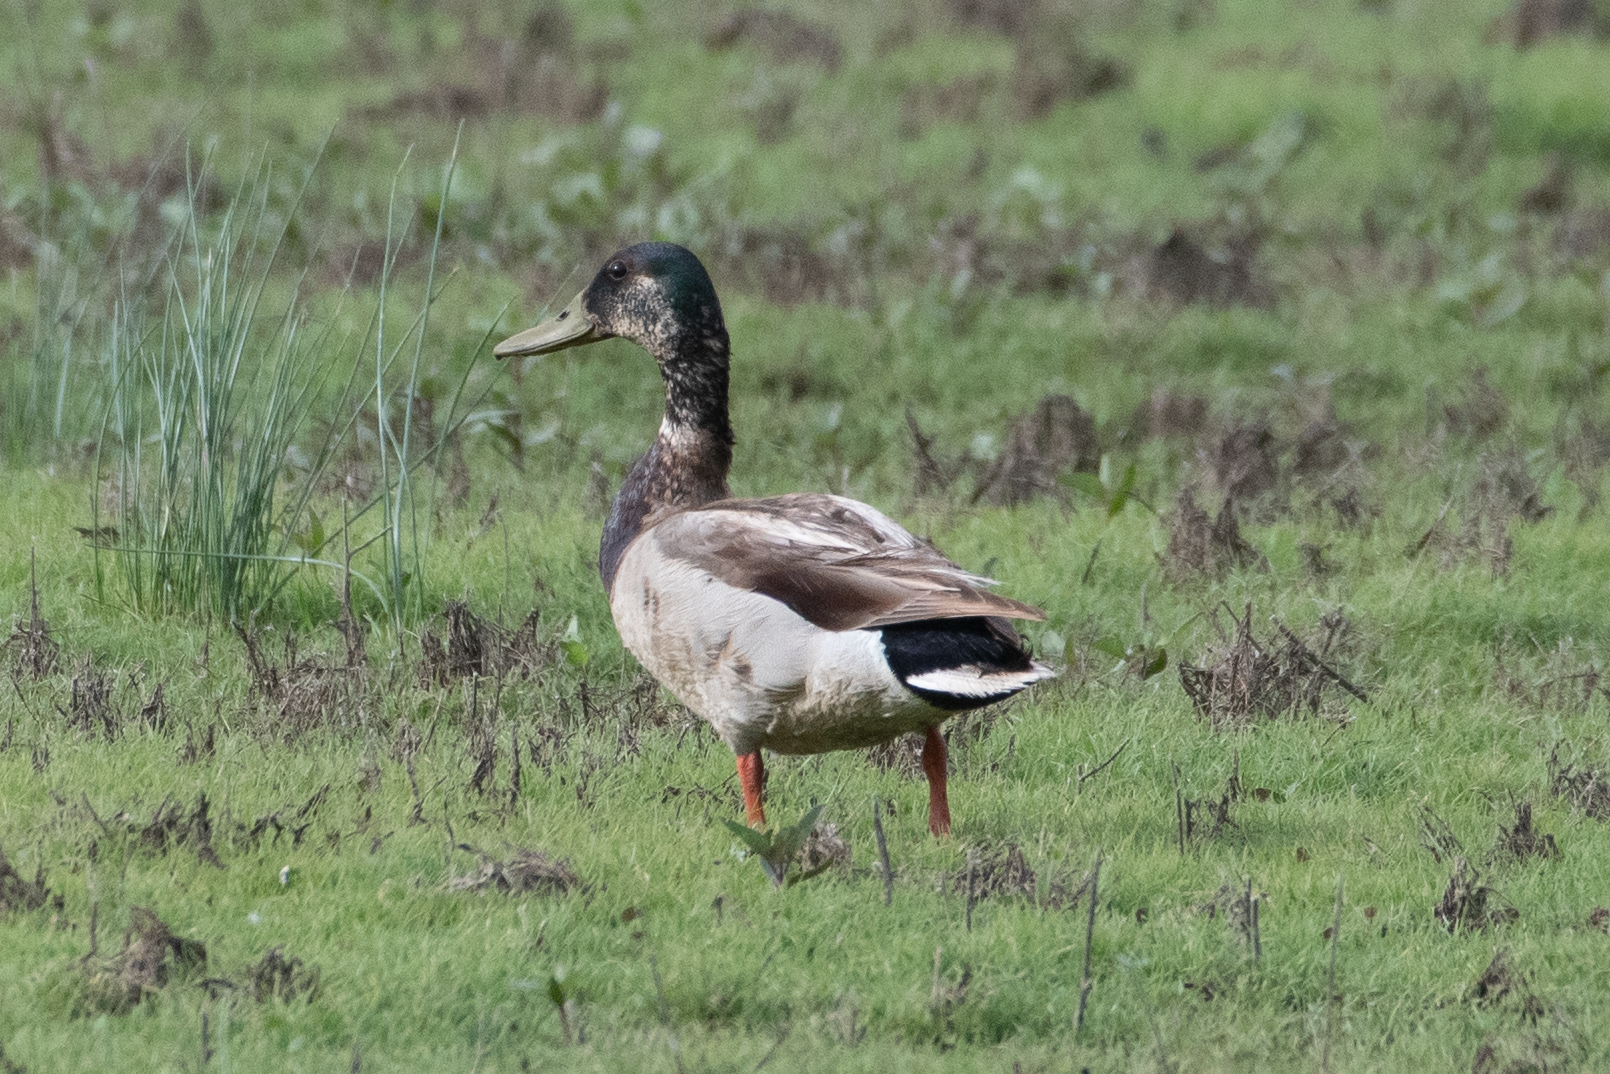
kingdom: Animalia
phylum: Chordata
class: Aves
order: Anseriformes
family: Anatidae
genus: Anas
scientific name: Anas platyrhynchos
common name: Mallard
